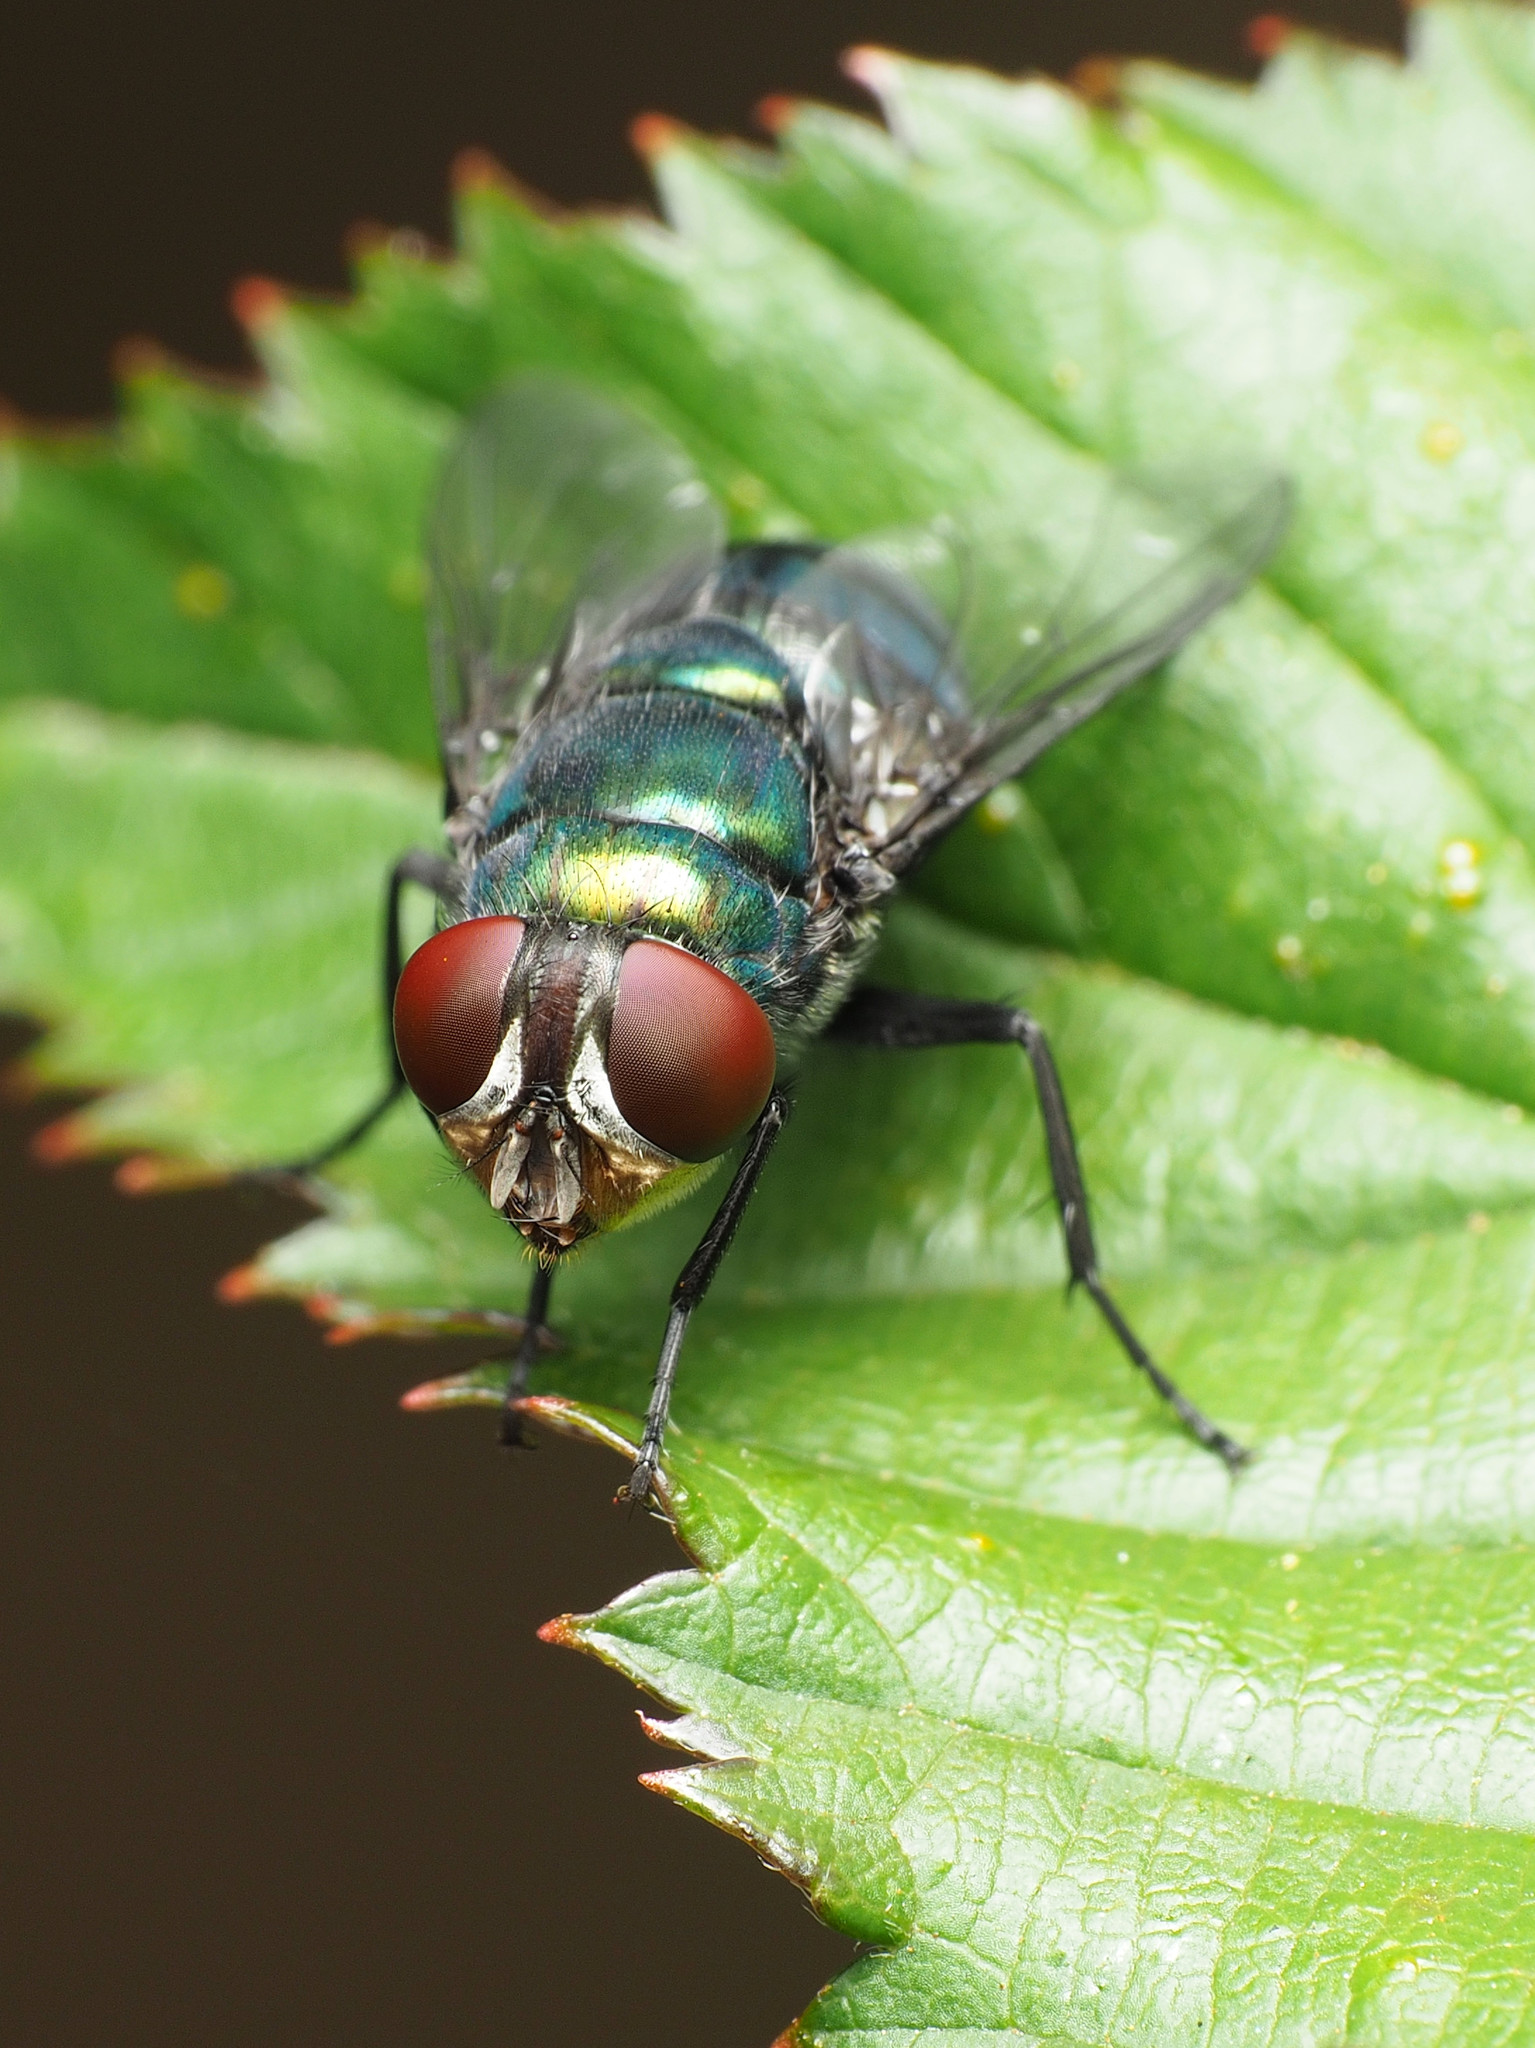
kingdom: Animalia
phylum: Arthropoda
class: Insecta
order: Diptera
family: Calliphoridae
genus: Chrysomya
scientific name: Chrysomya rufifacies
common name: Blow fly
